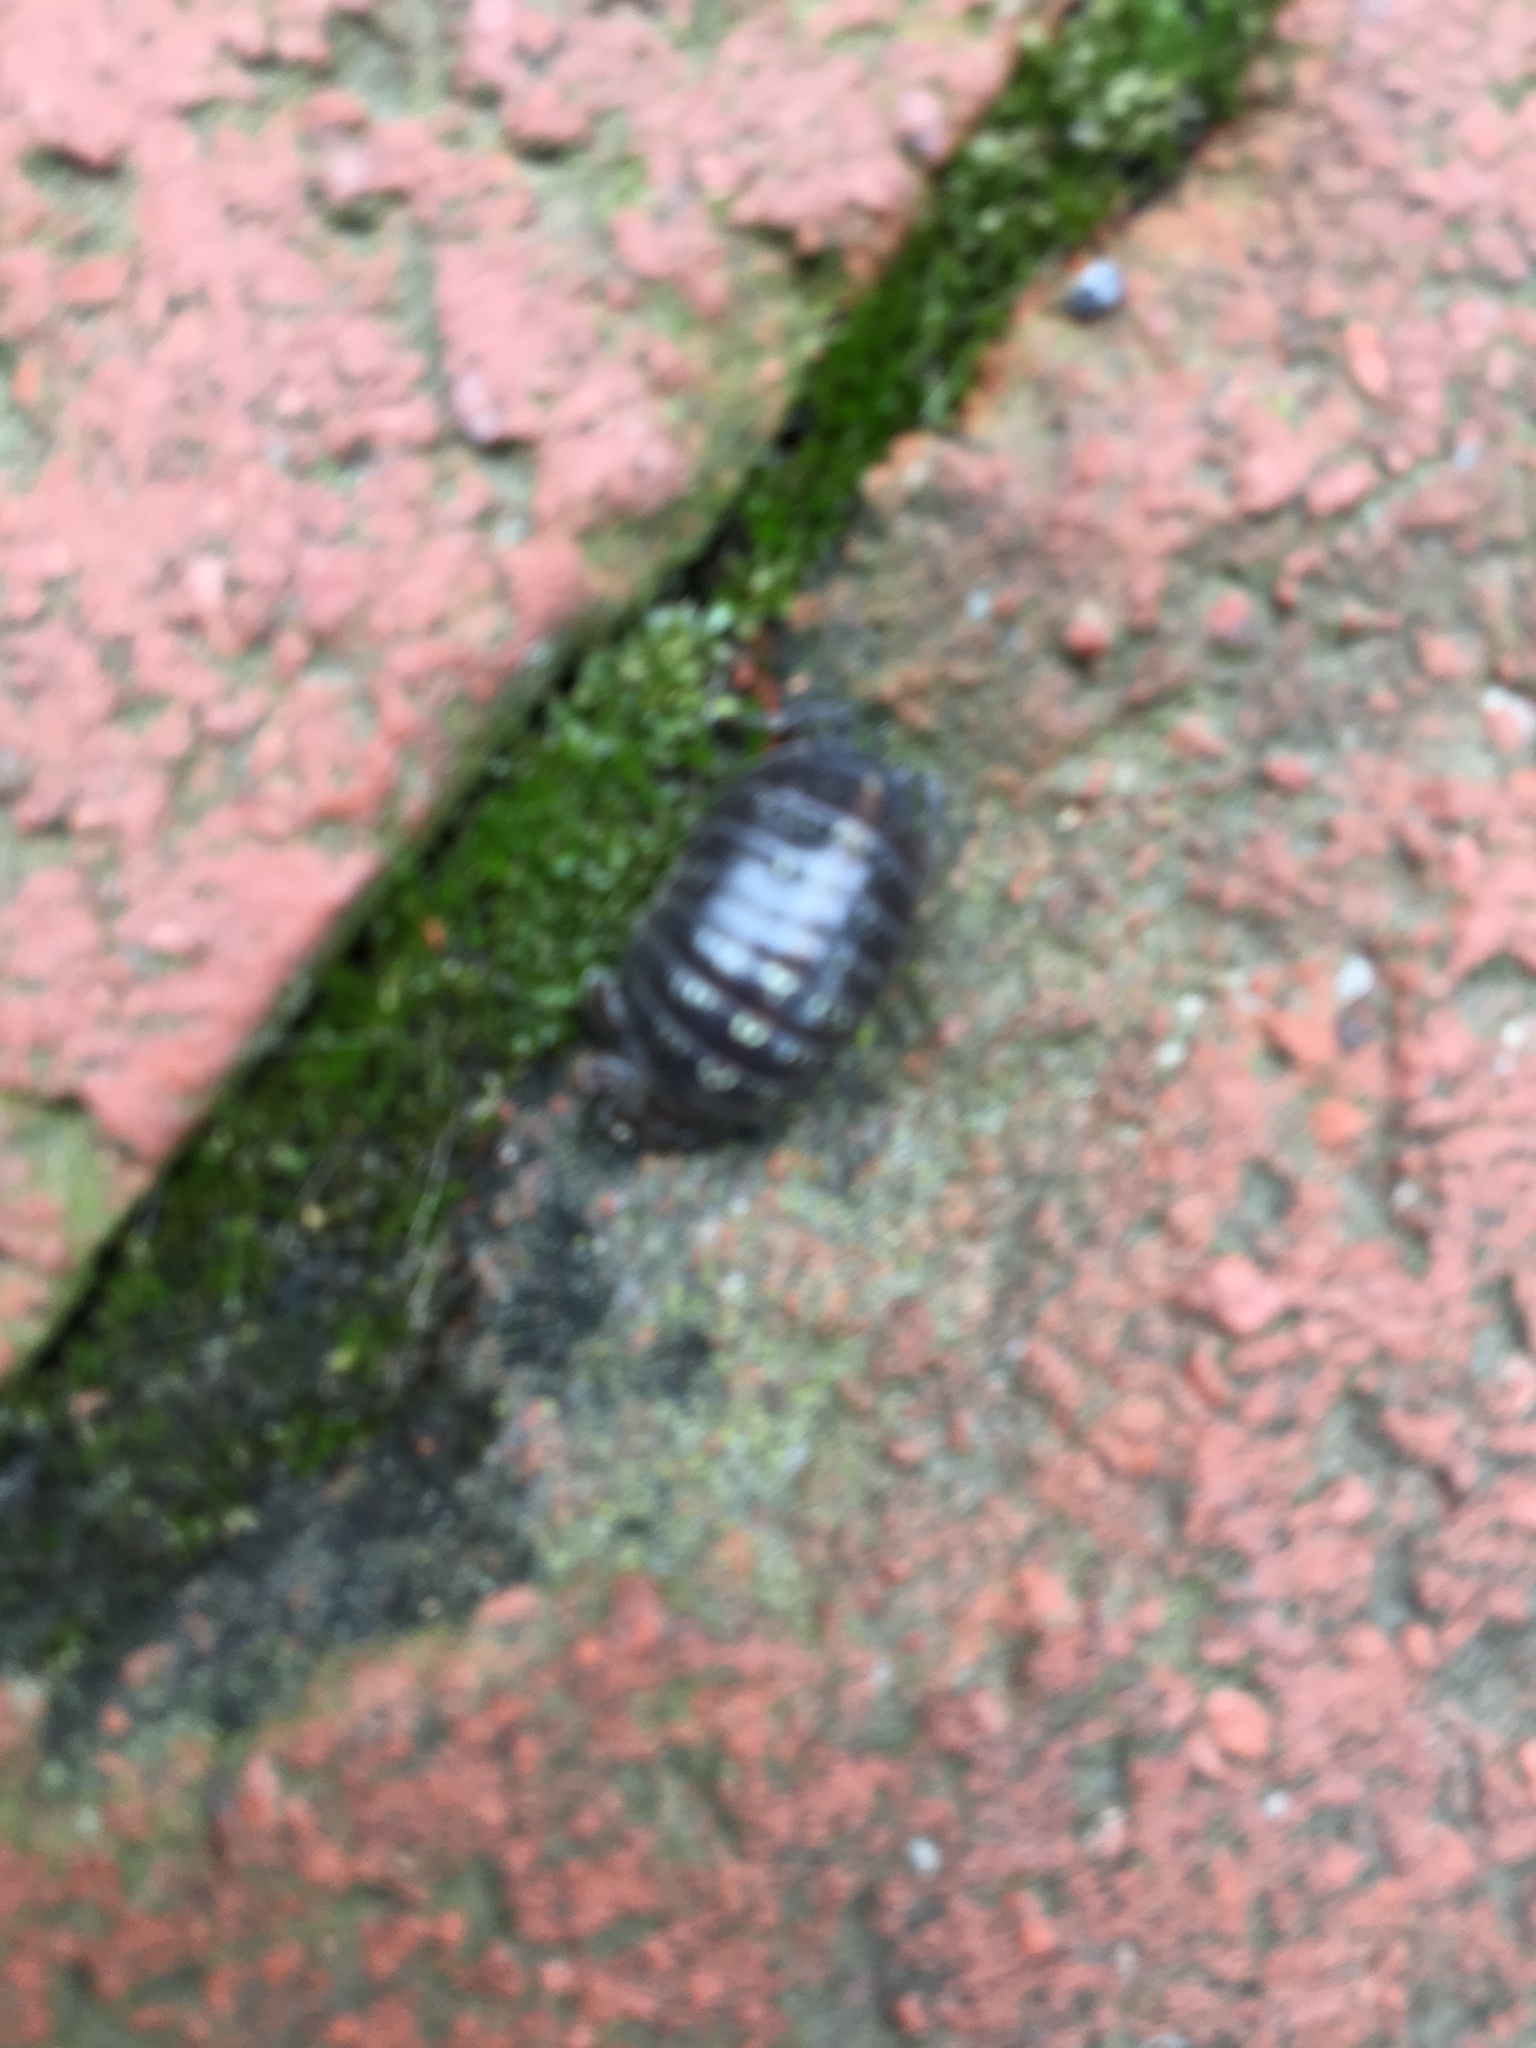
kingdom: Animalia
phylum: Arthropoda
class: Malacostraca
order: Isopoda
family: Armadillidiidae
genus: Armadillidium
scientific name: Armadillidium vulgare
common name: Common pill woodlouse
